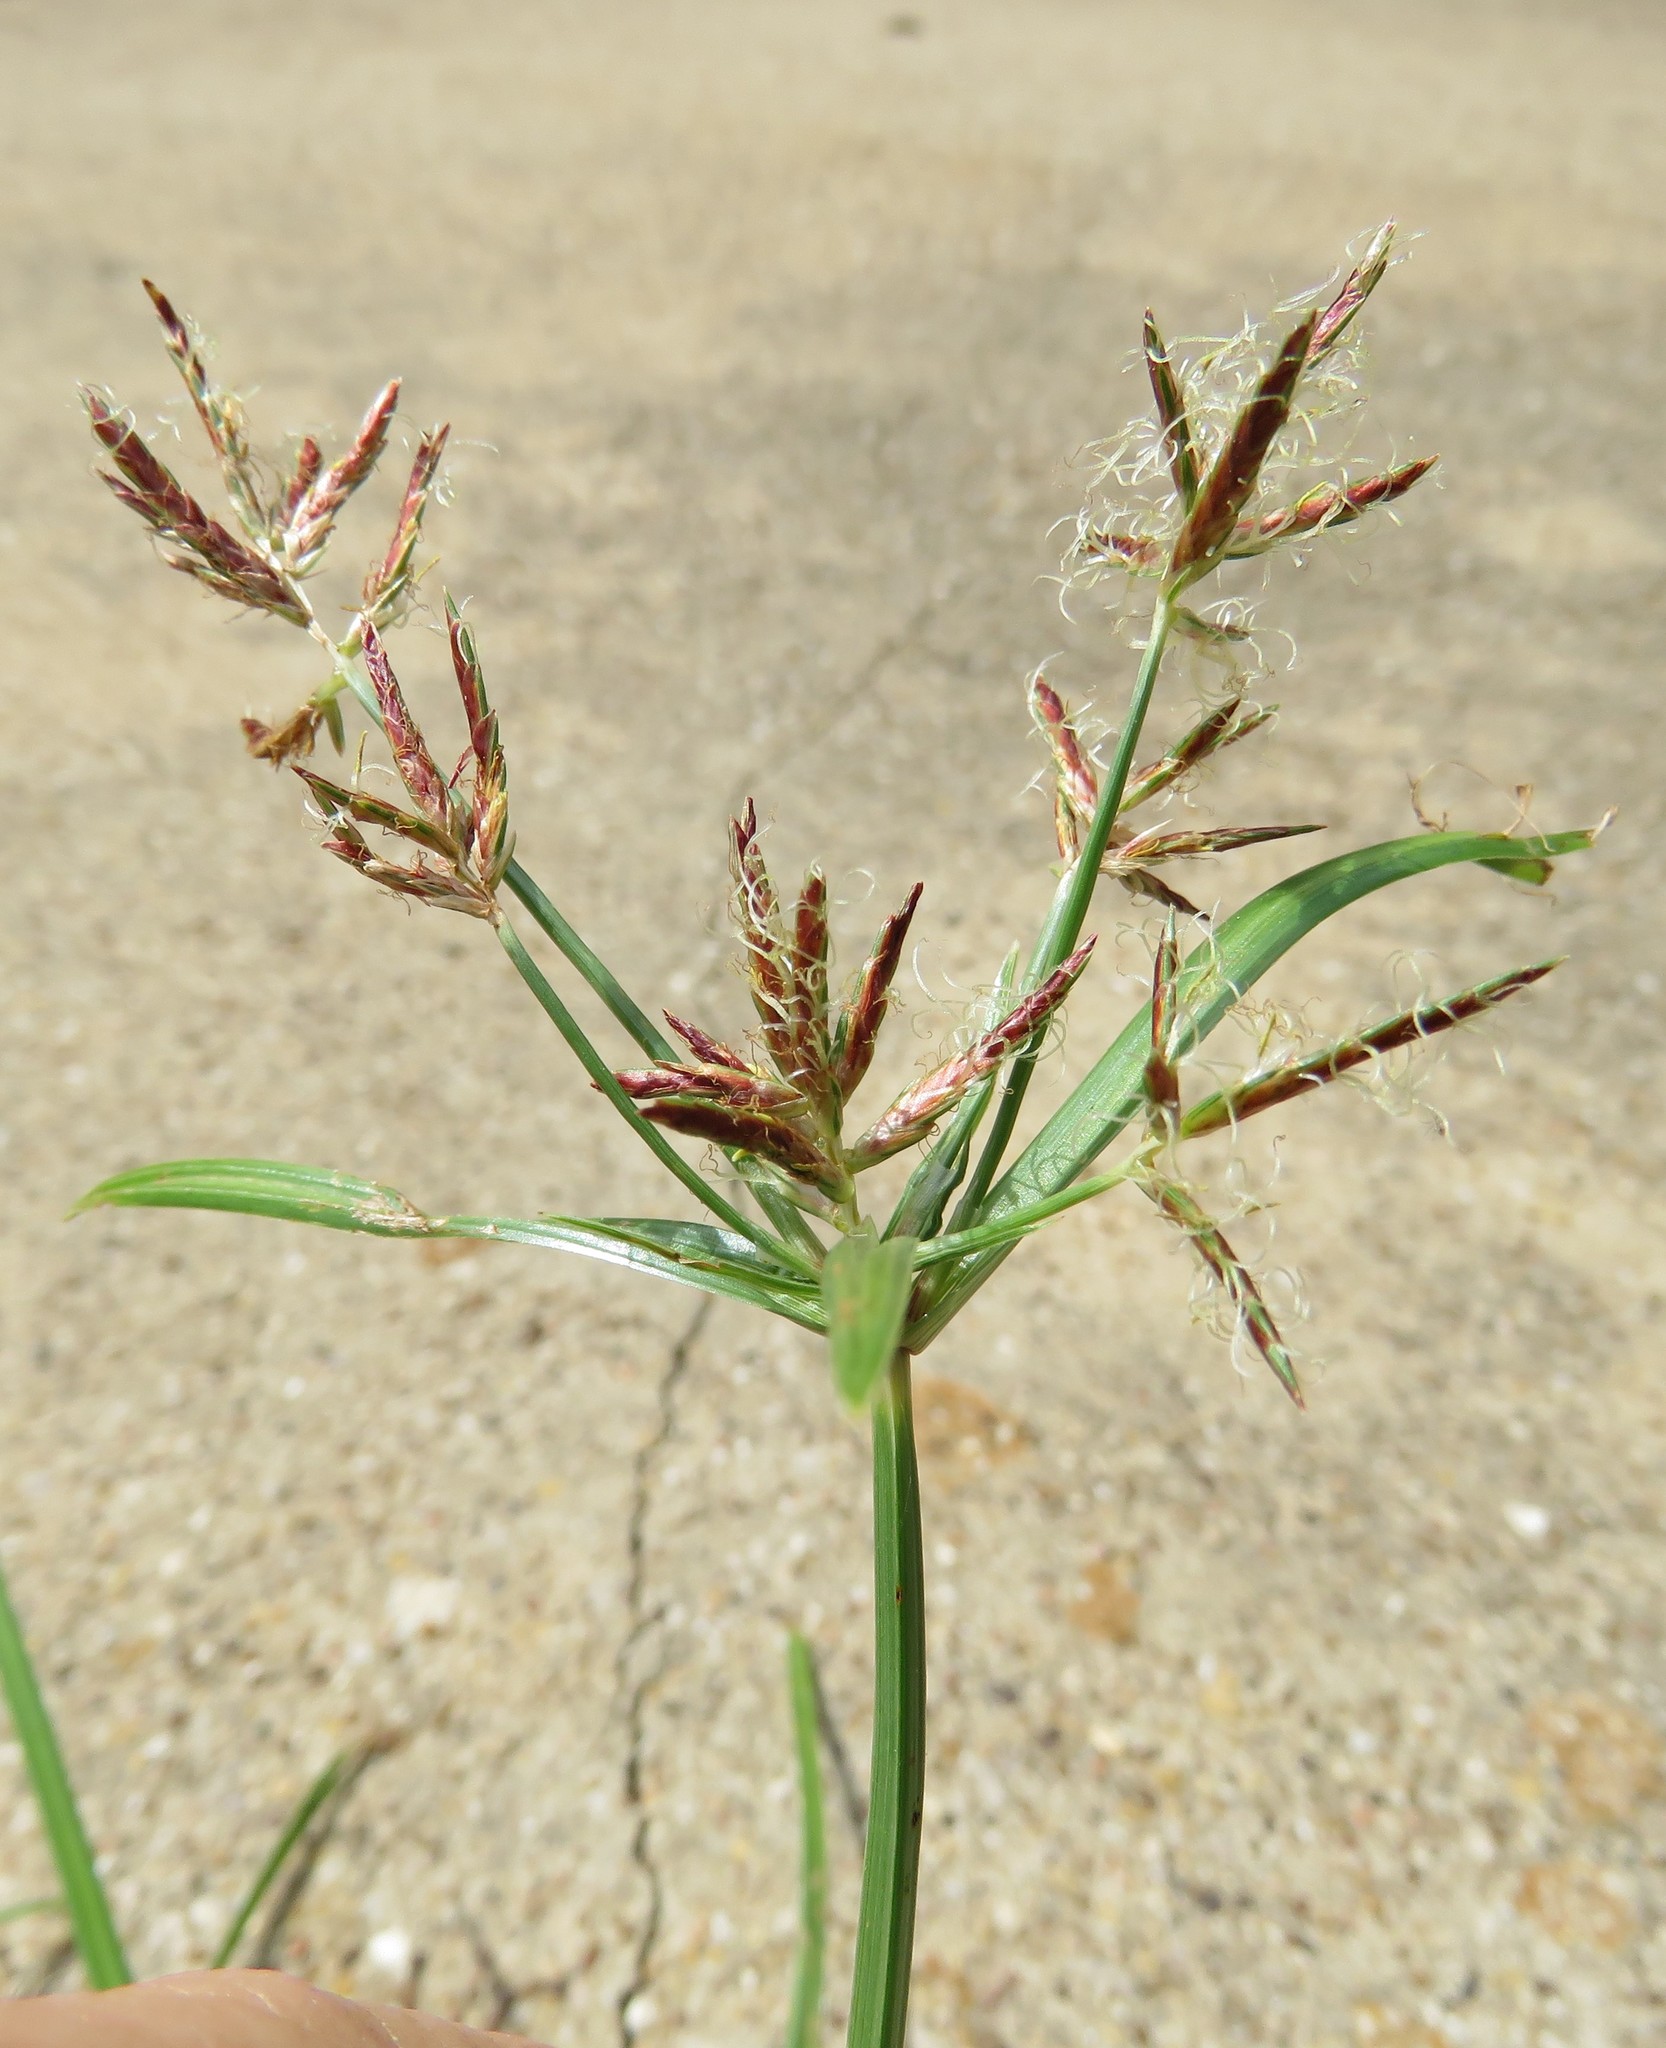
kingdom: Plantae
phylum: Tracheophyta
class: Liliopsida
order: Poales
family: Cyperaceae
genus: Cyperus
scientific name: Cyperus rotundus
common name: Nutgrass
